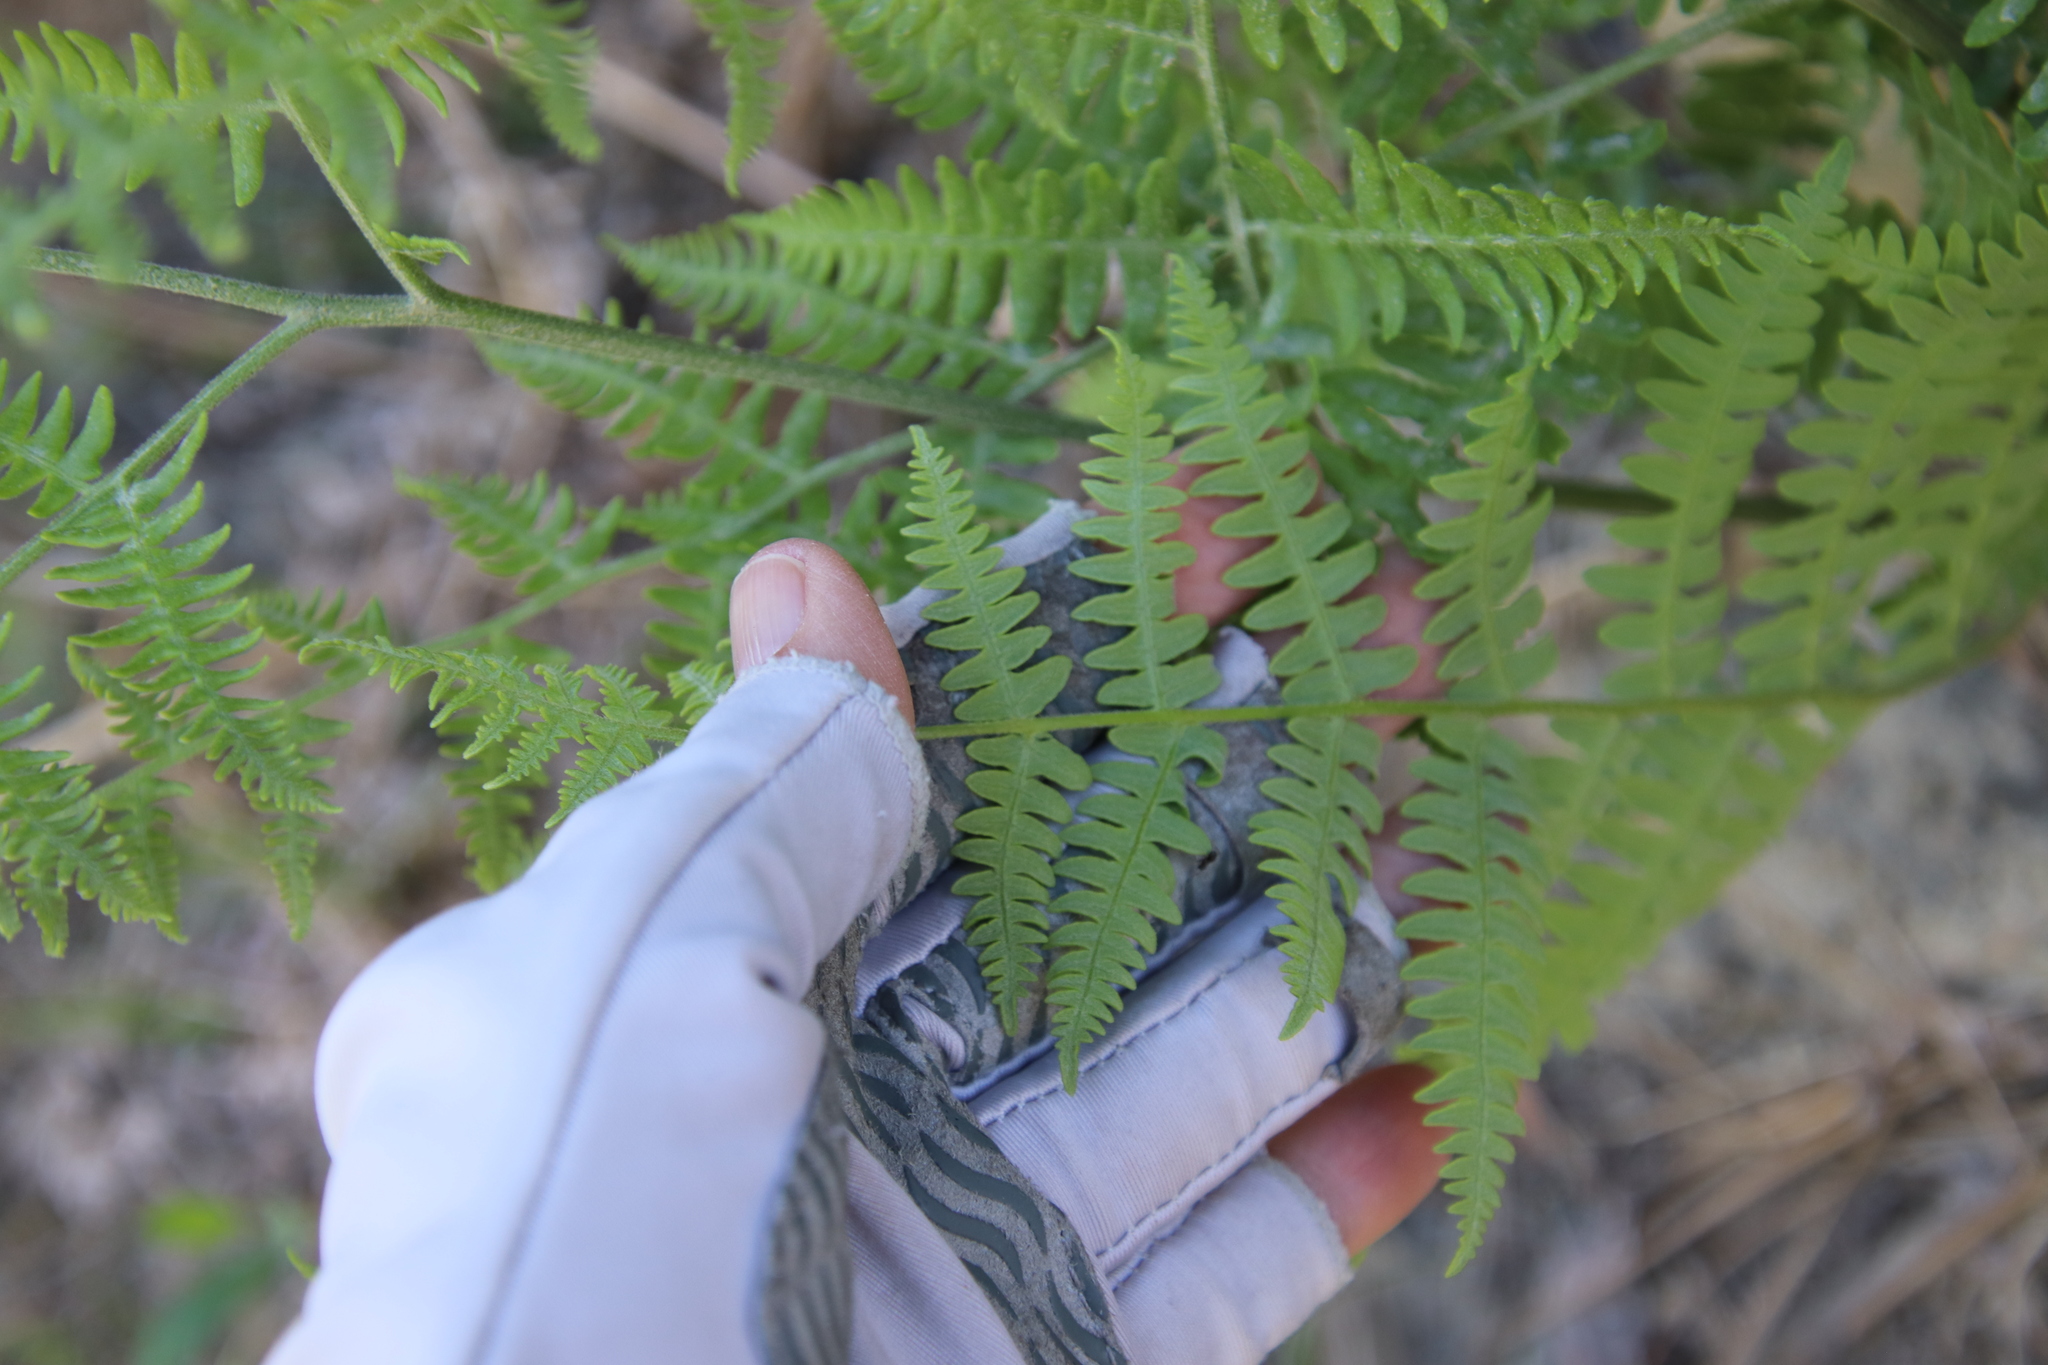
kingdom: Plantae
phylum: Tracheophyta
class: Polypodiopsida
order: Polypodiales
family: Dennstaedtiaceae
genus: Pteridium
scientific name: Pteridium aquilinum
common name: Bracken
